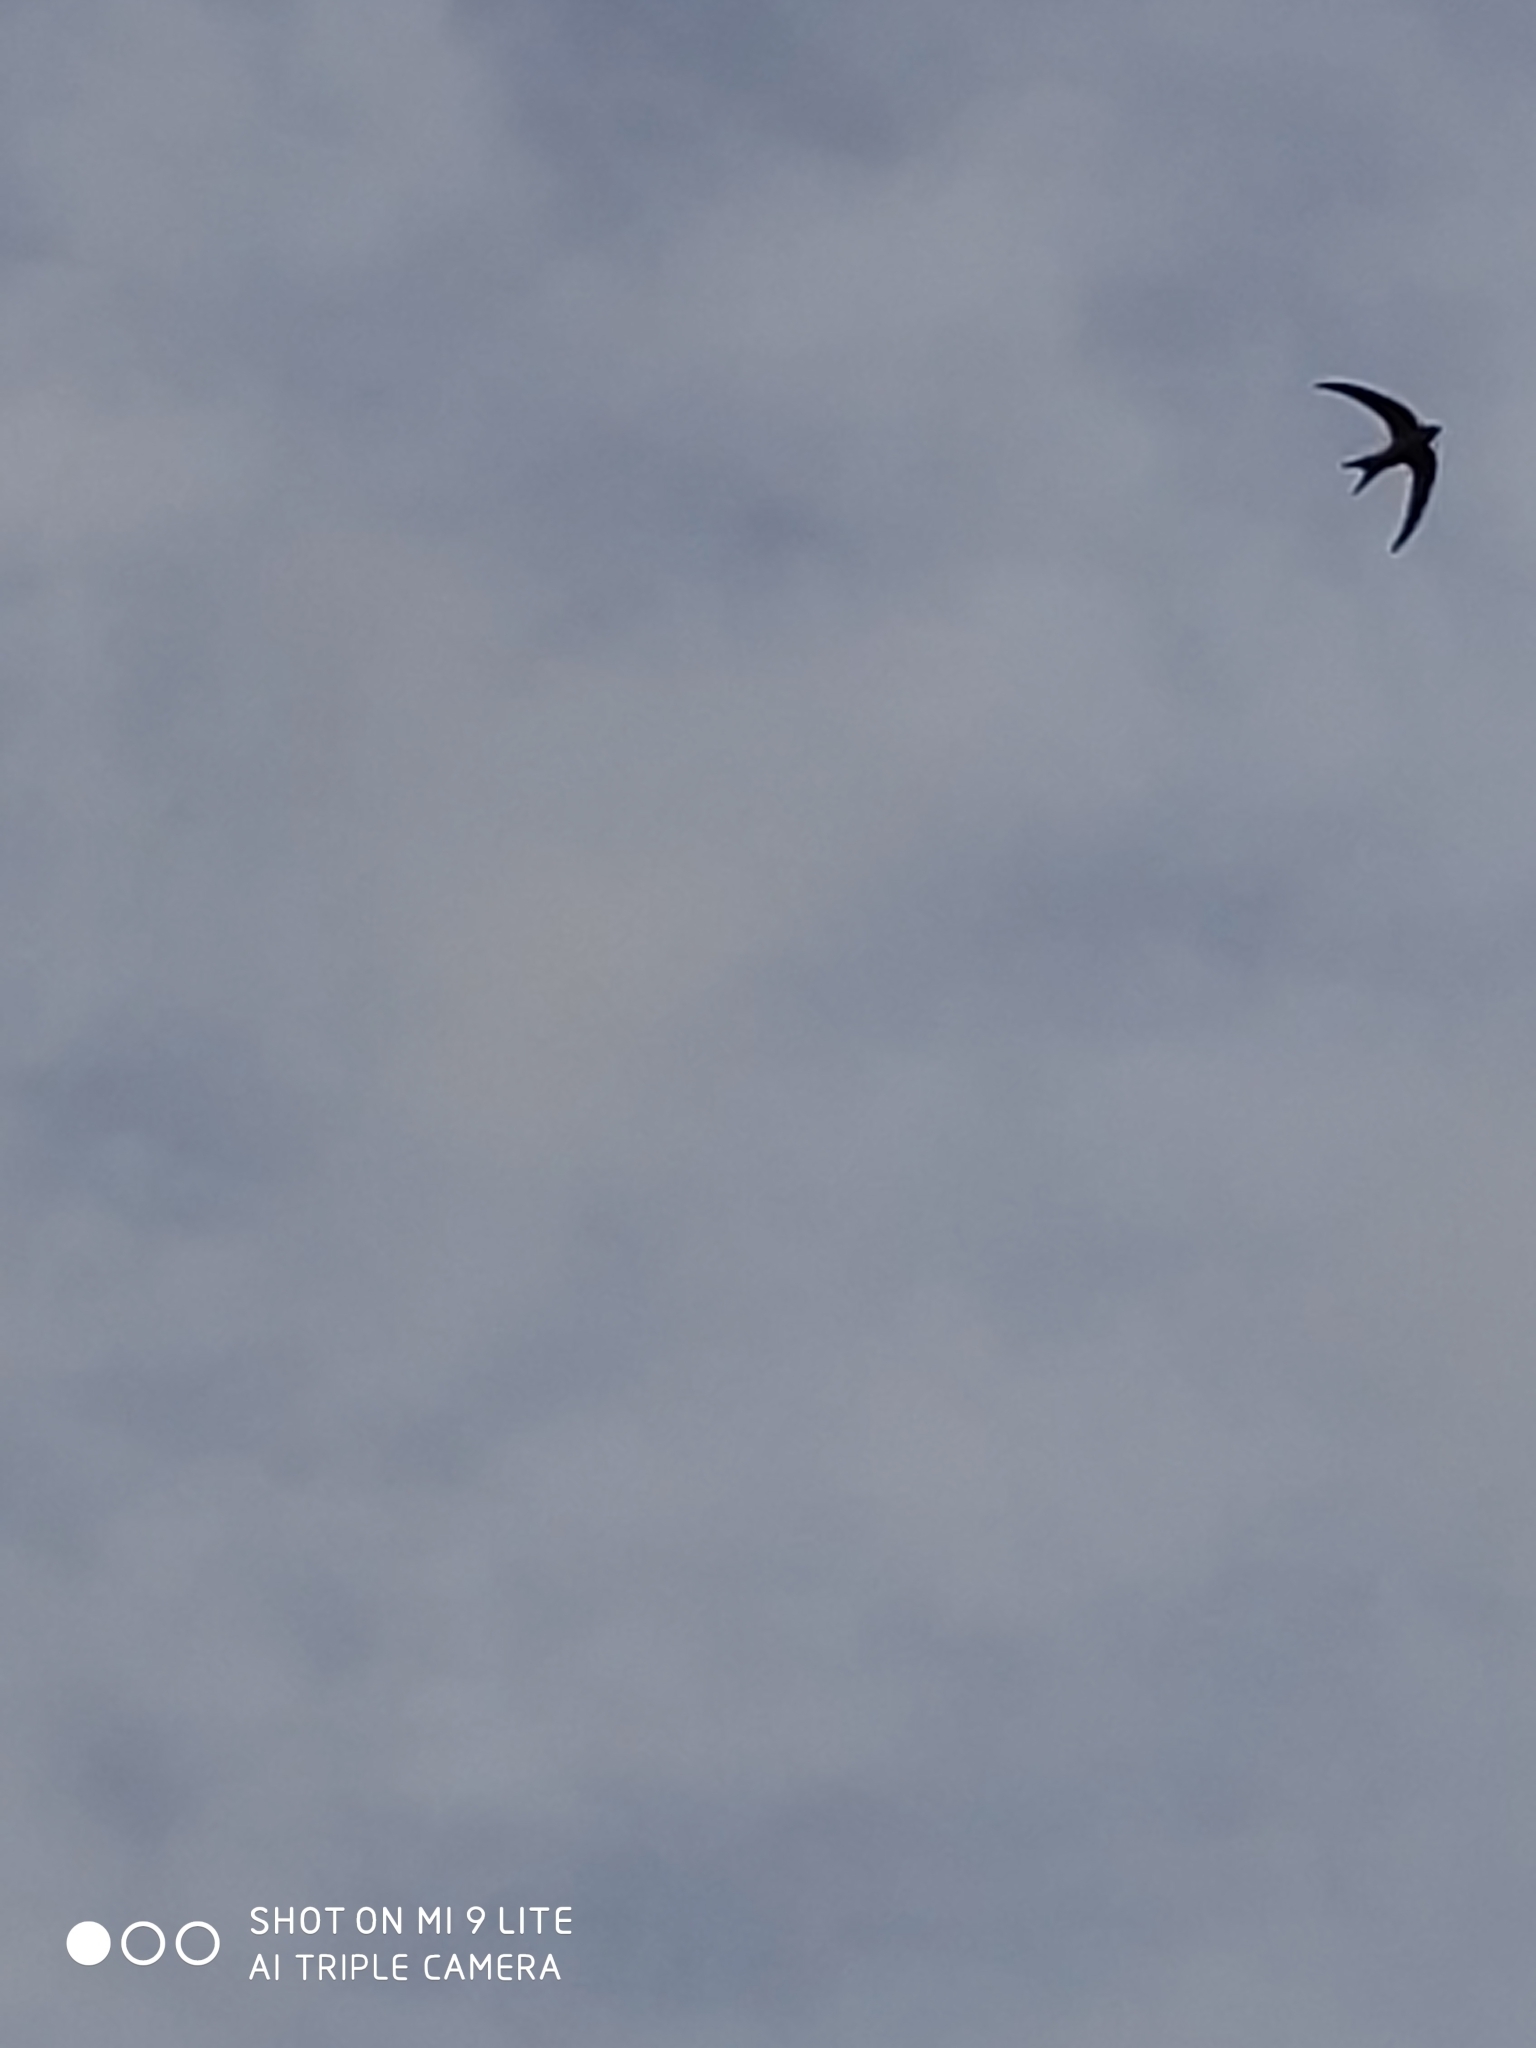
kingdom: Animalia
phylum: Chordata
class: Aves
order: Apodiformes
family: Apodidae
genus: Apus
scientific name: Apus apus
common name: Common swift
